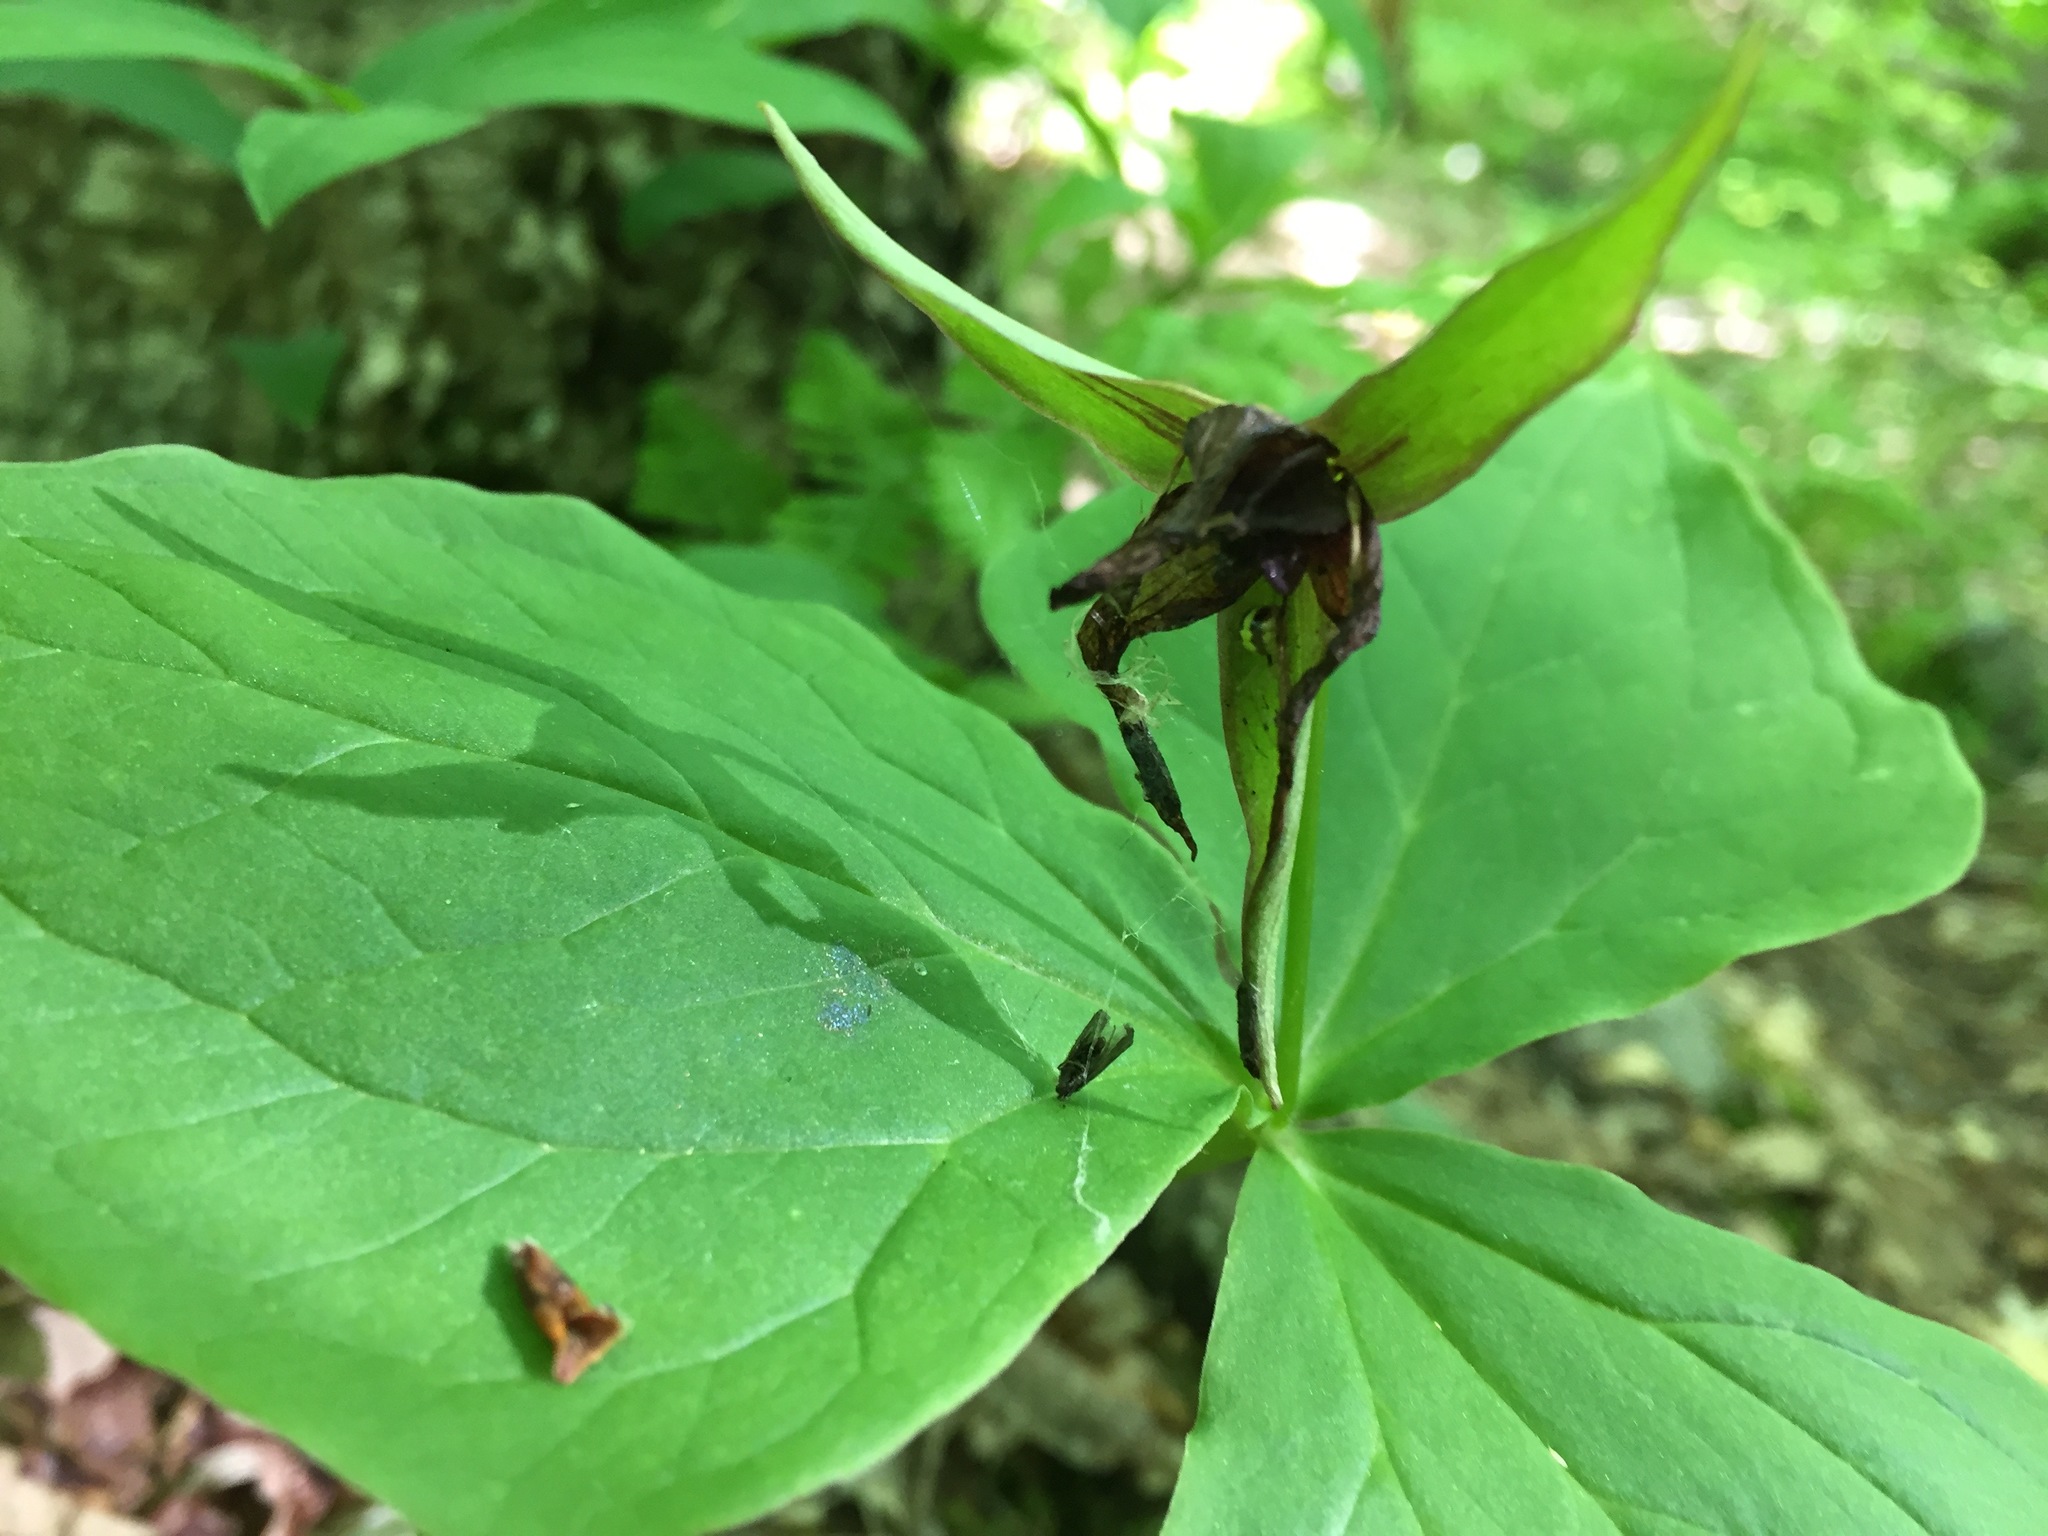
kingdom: Plantae
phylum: Tracheophyta
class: Liliopsida
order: Liliales
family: Melanthiaceae
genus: Trillium
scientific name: Trillium erectum
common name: Purple trillium
